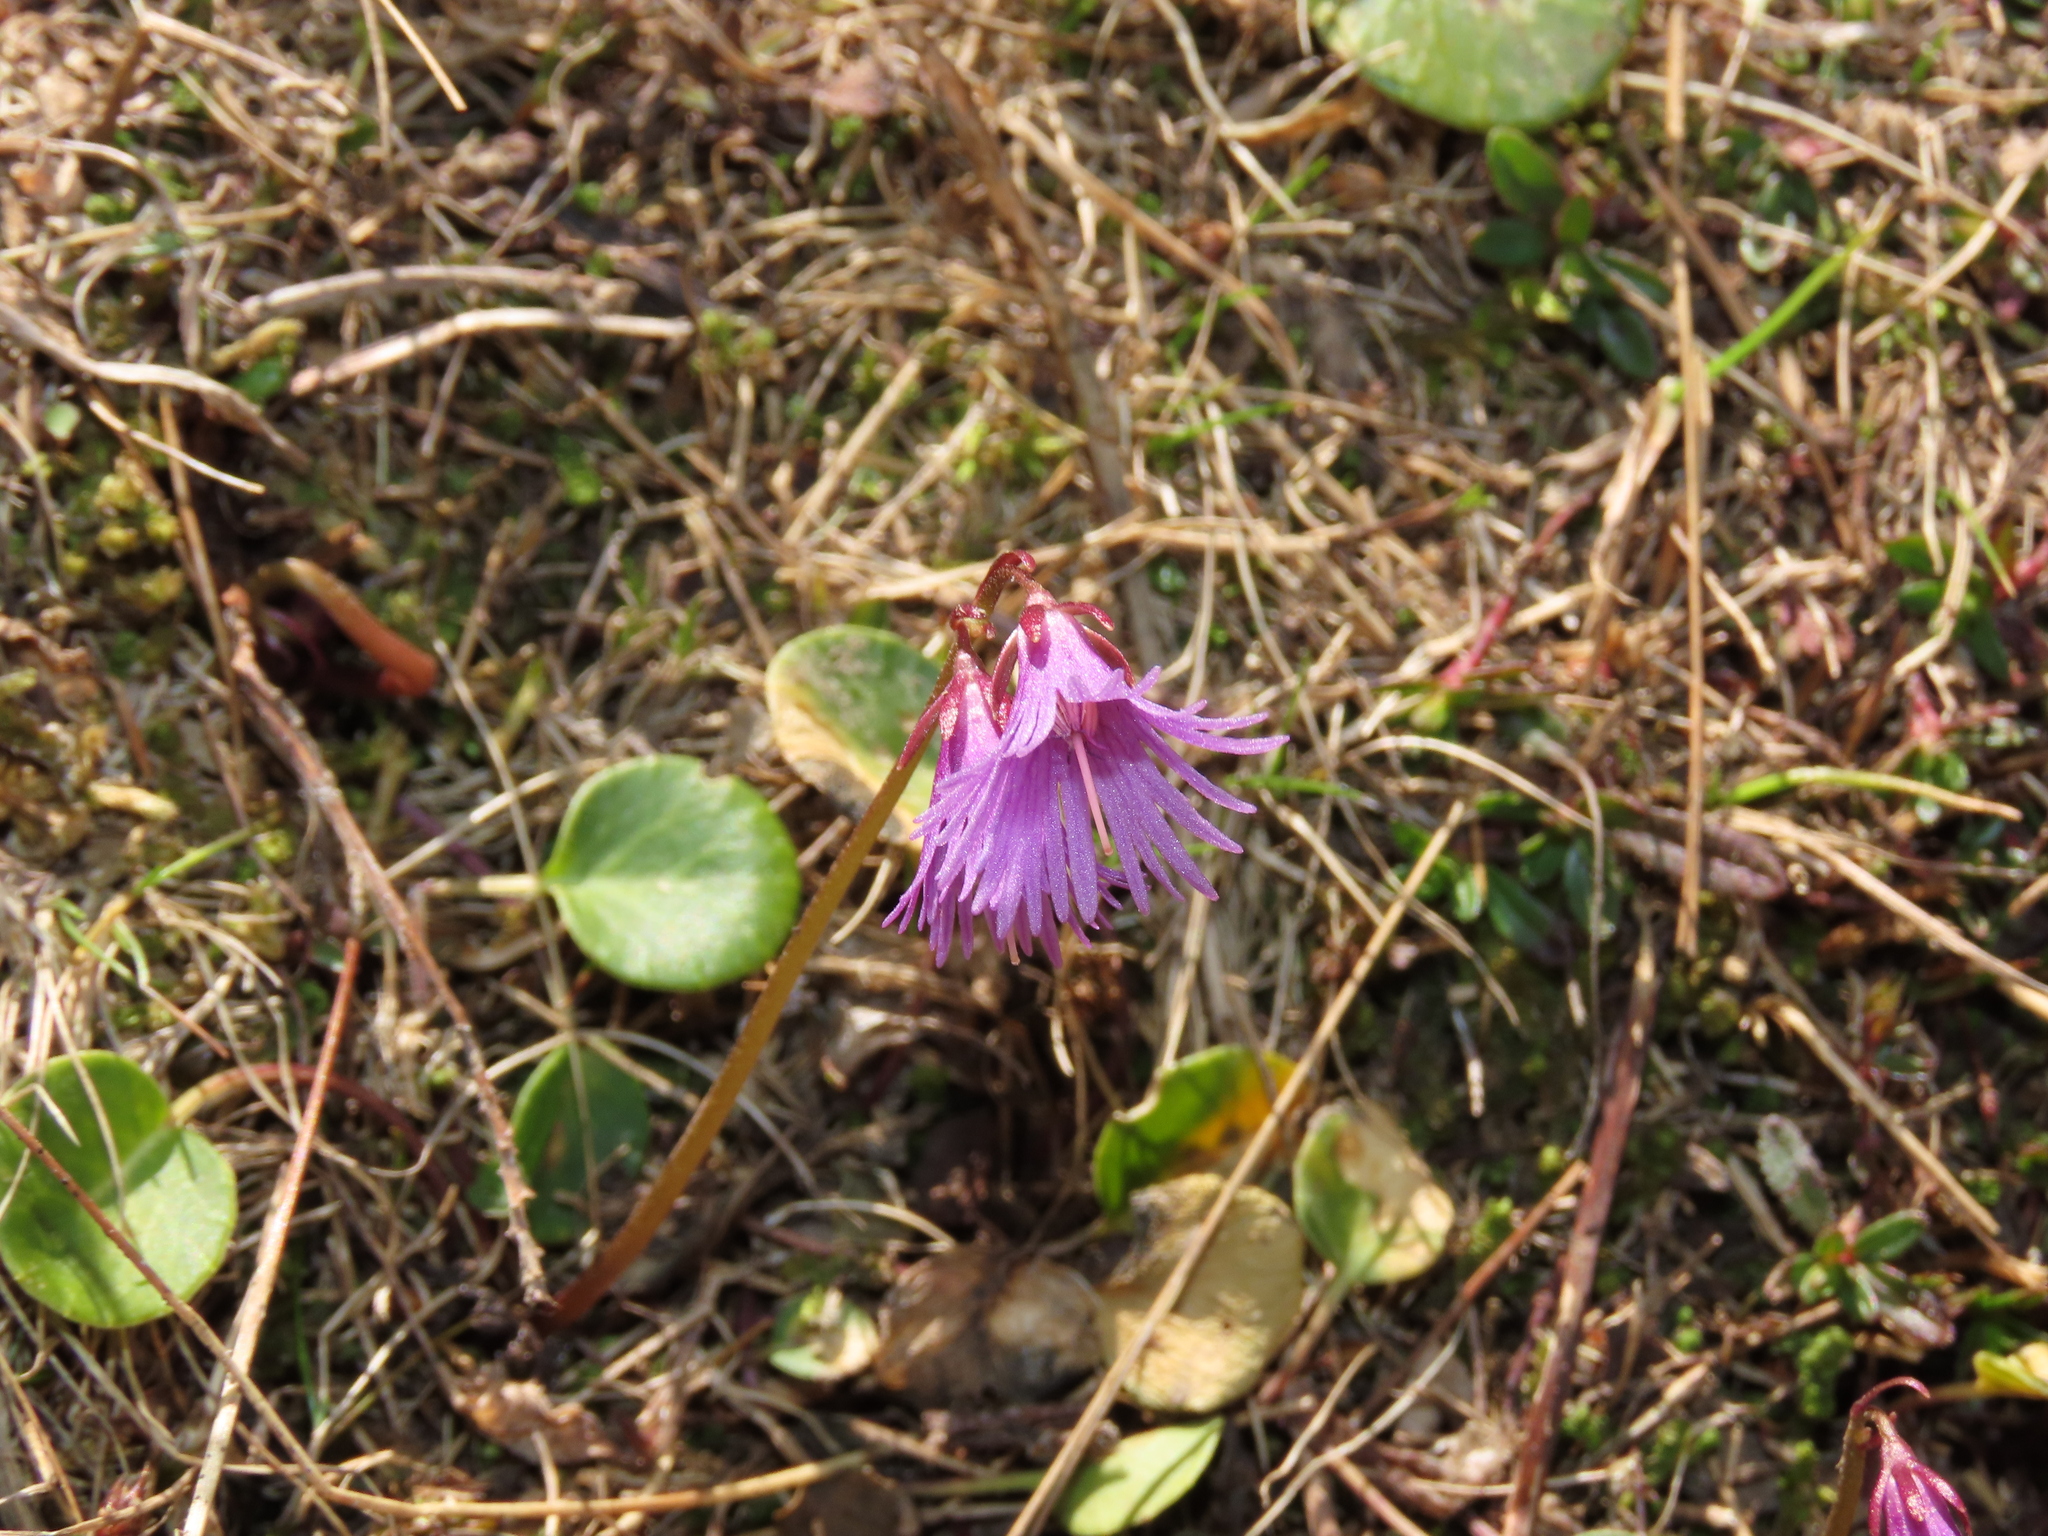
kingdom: Plantae
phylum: Tracheophyta
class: Magnoliopsida
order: Ericales
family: Primulaceae
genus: Soldanella
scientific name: Soldanella alpina
